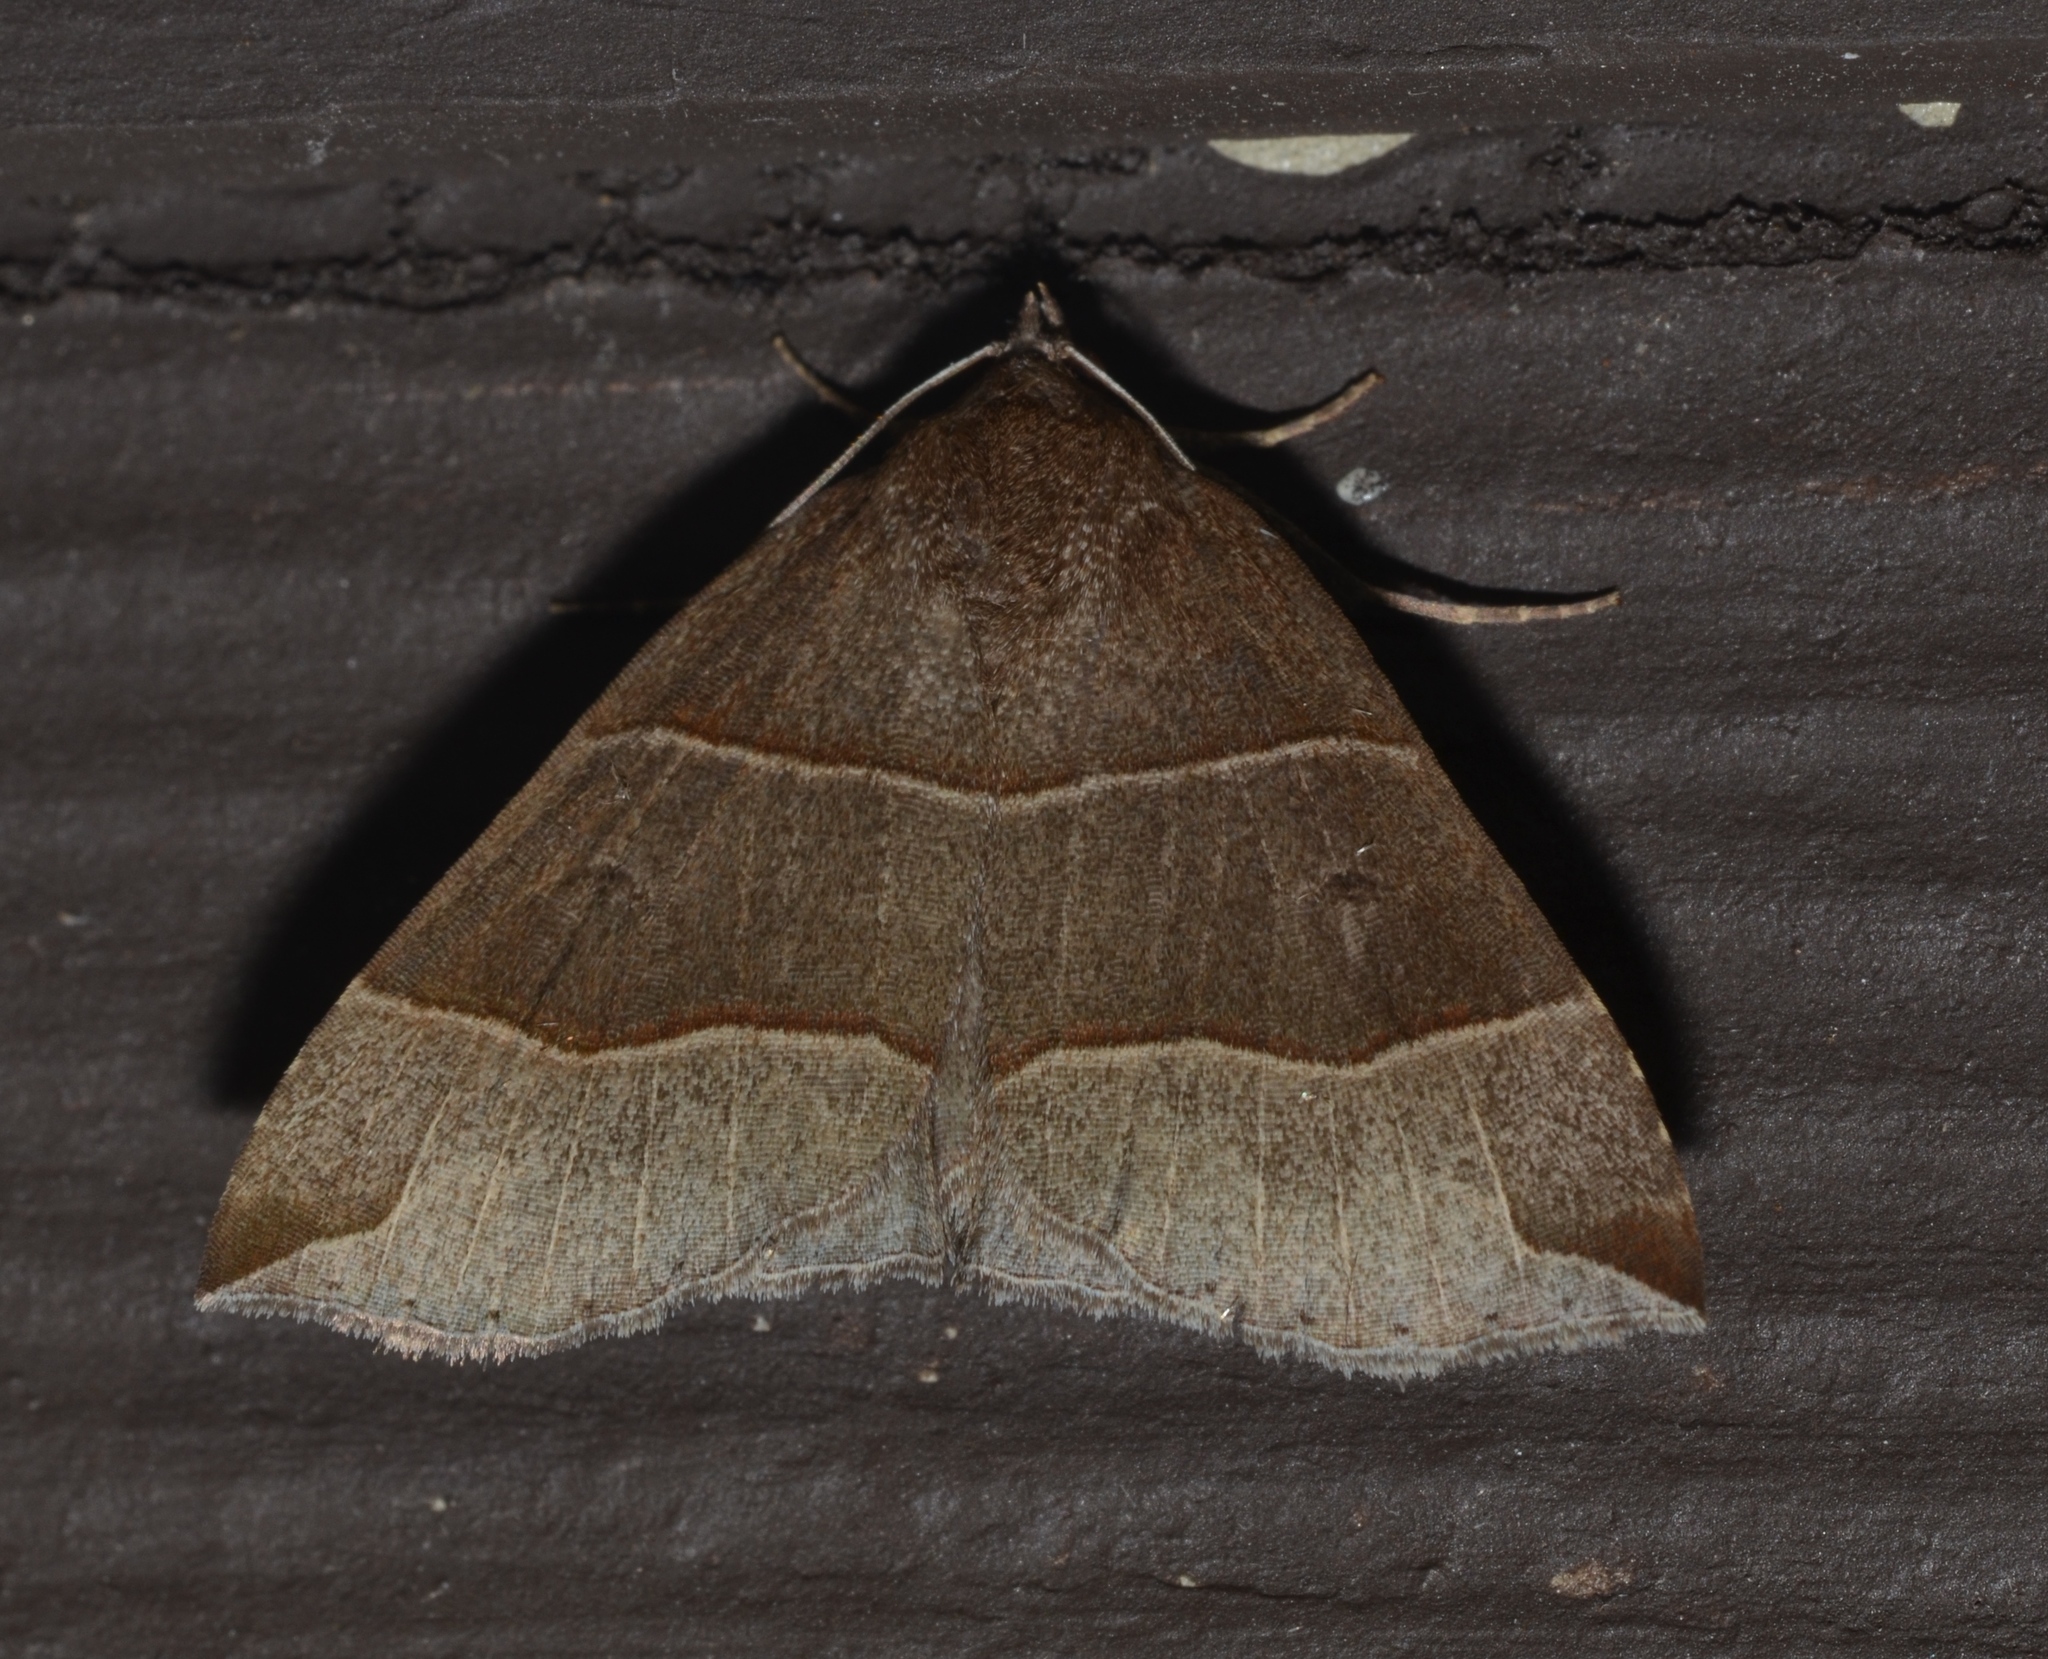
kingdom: Animalia
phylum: Arthropoda
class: Insecta
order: Lepidoptera
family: Erebidae
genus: Parallelia
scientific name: Parallelia bistriaris
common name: Maple looper moth
